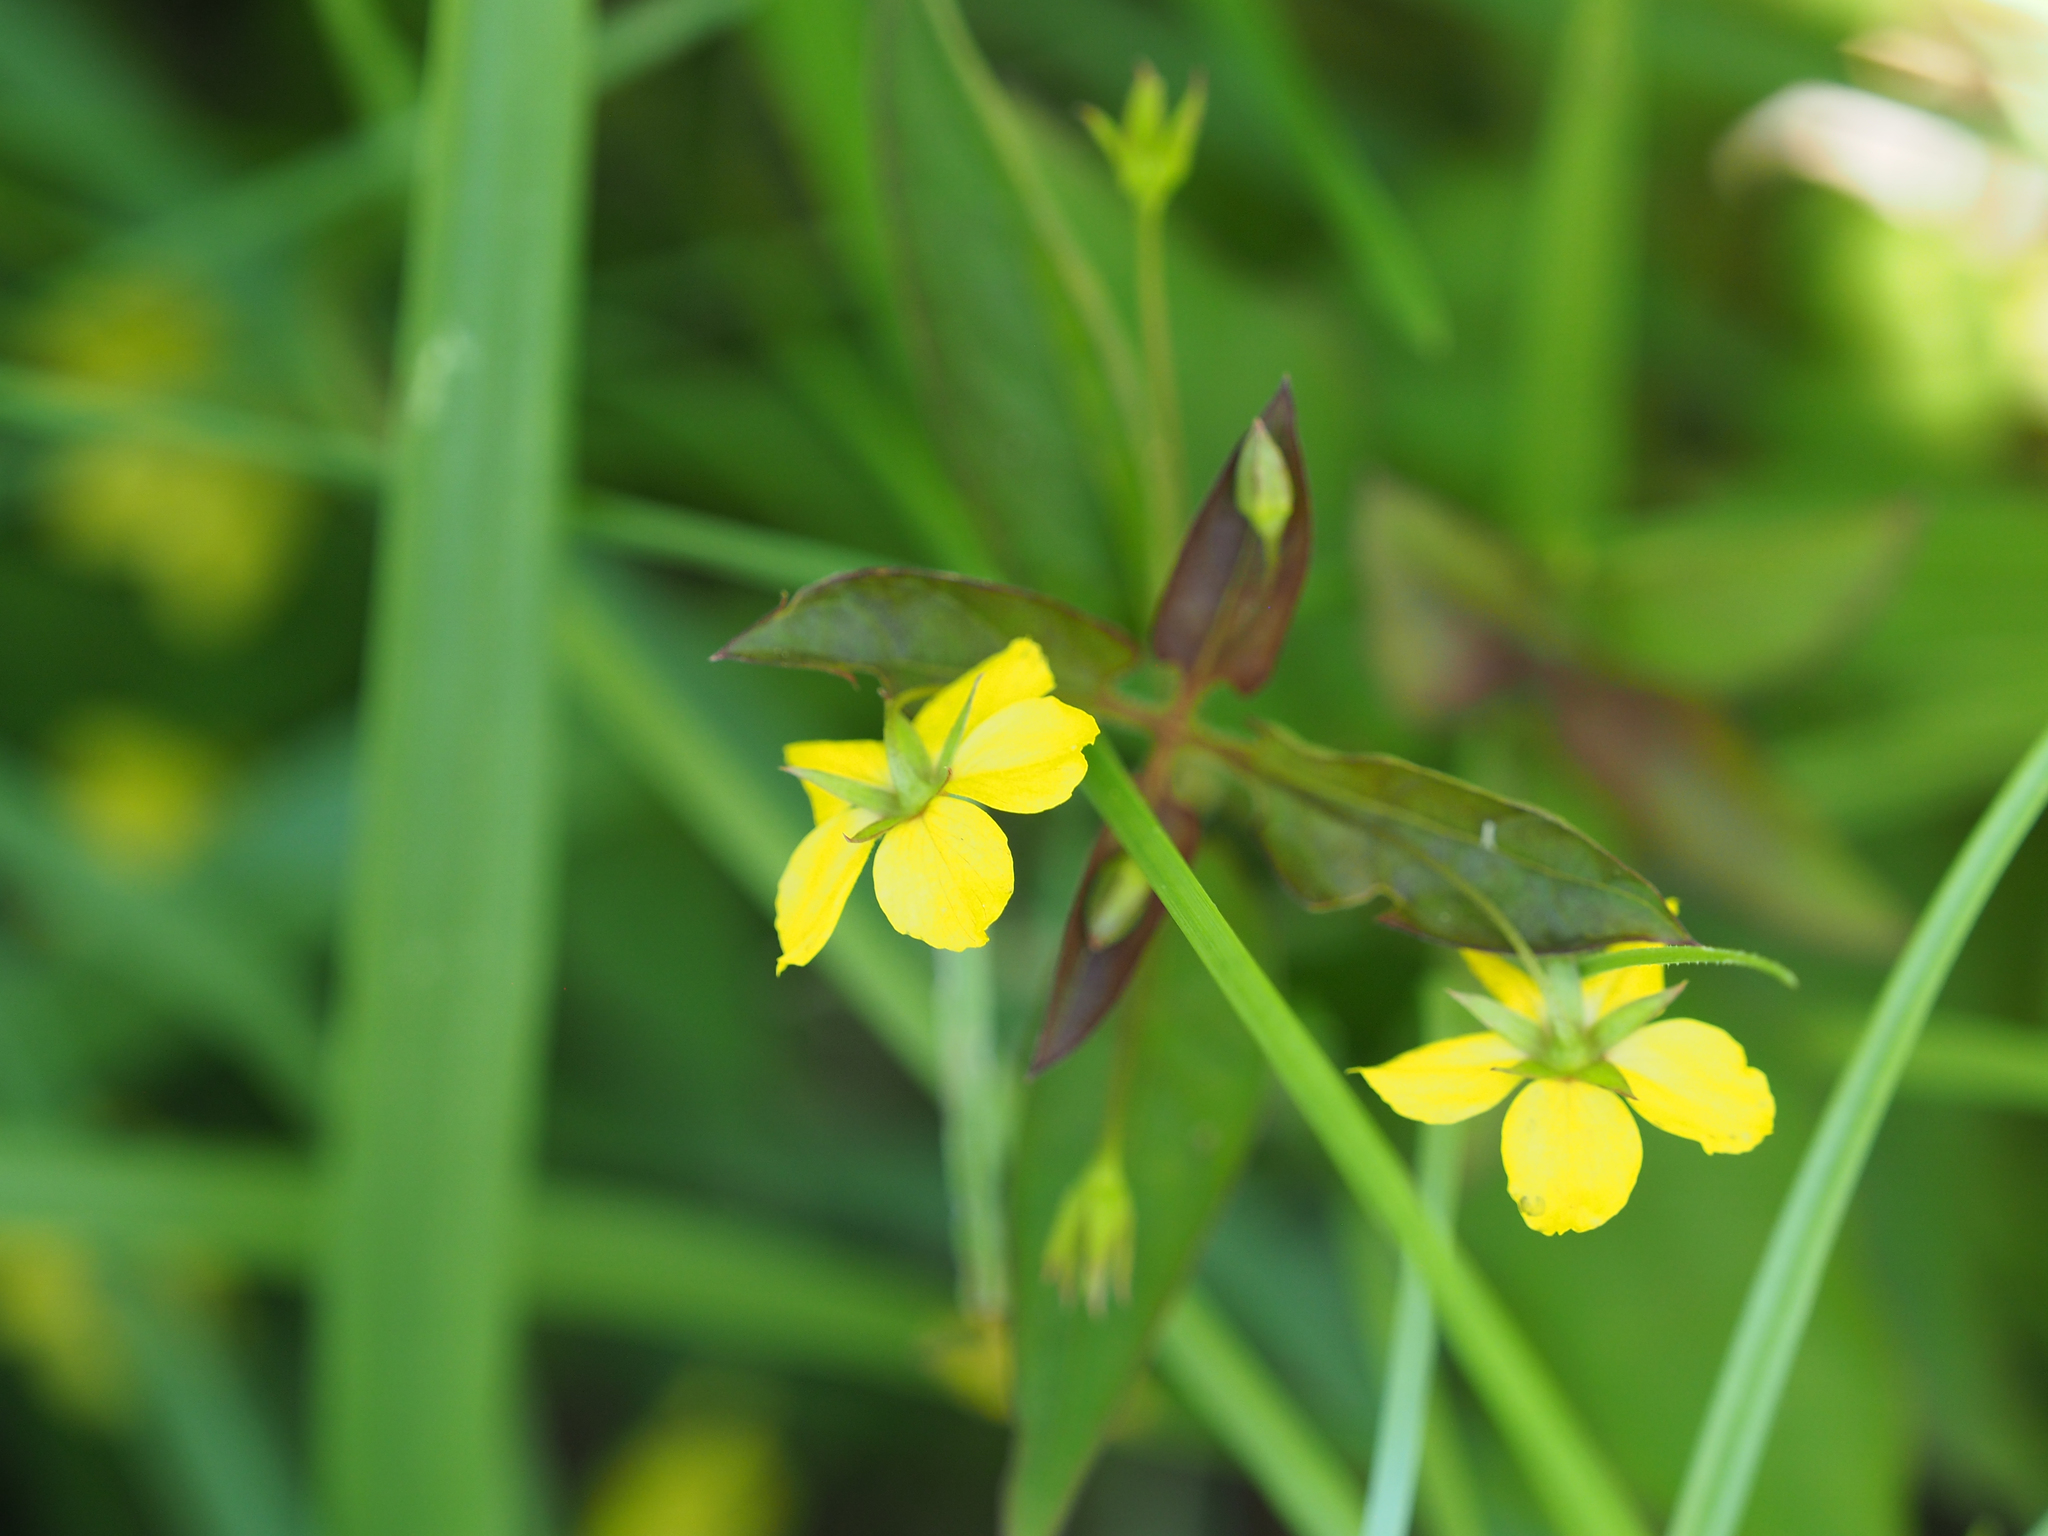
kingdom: Plantae
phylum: Tracheophyta
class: Magnoliopsida
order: Ericales
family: Primulaceae
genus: Lysimachia
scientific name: Lysimachia ciliata
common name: Fringed loosestrife
